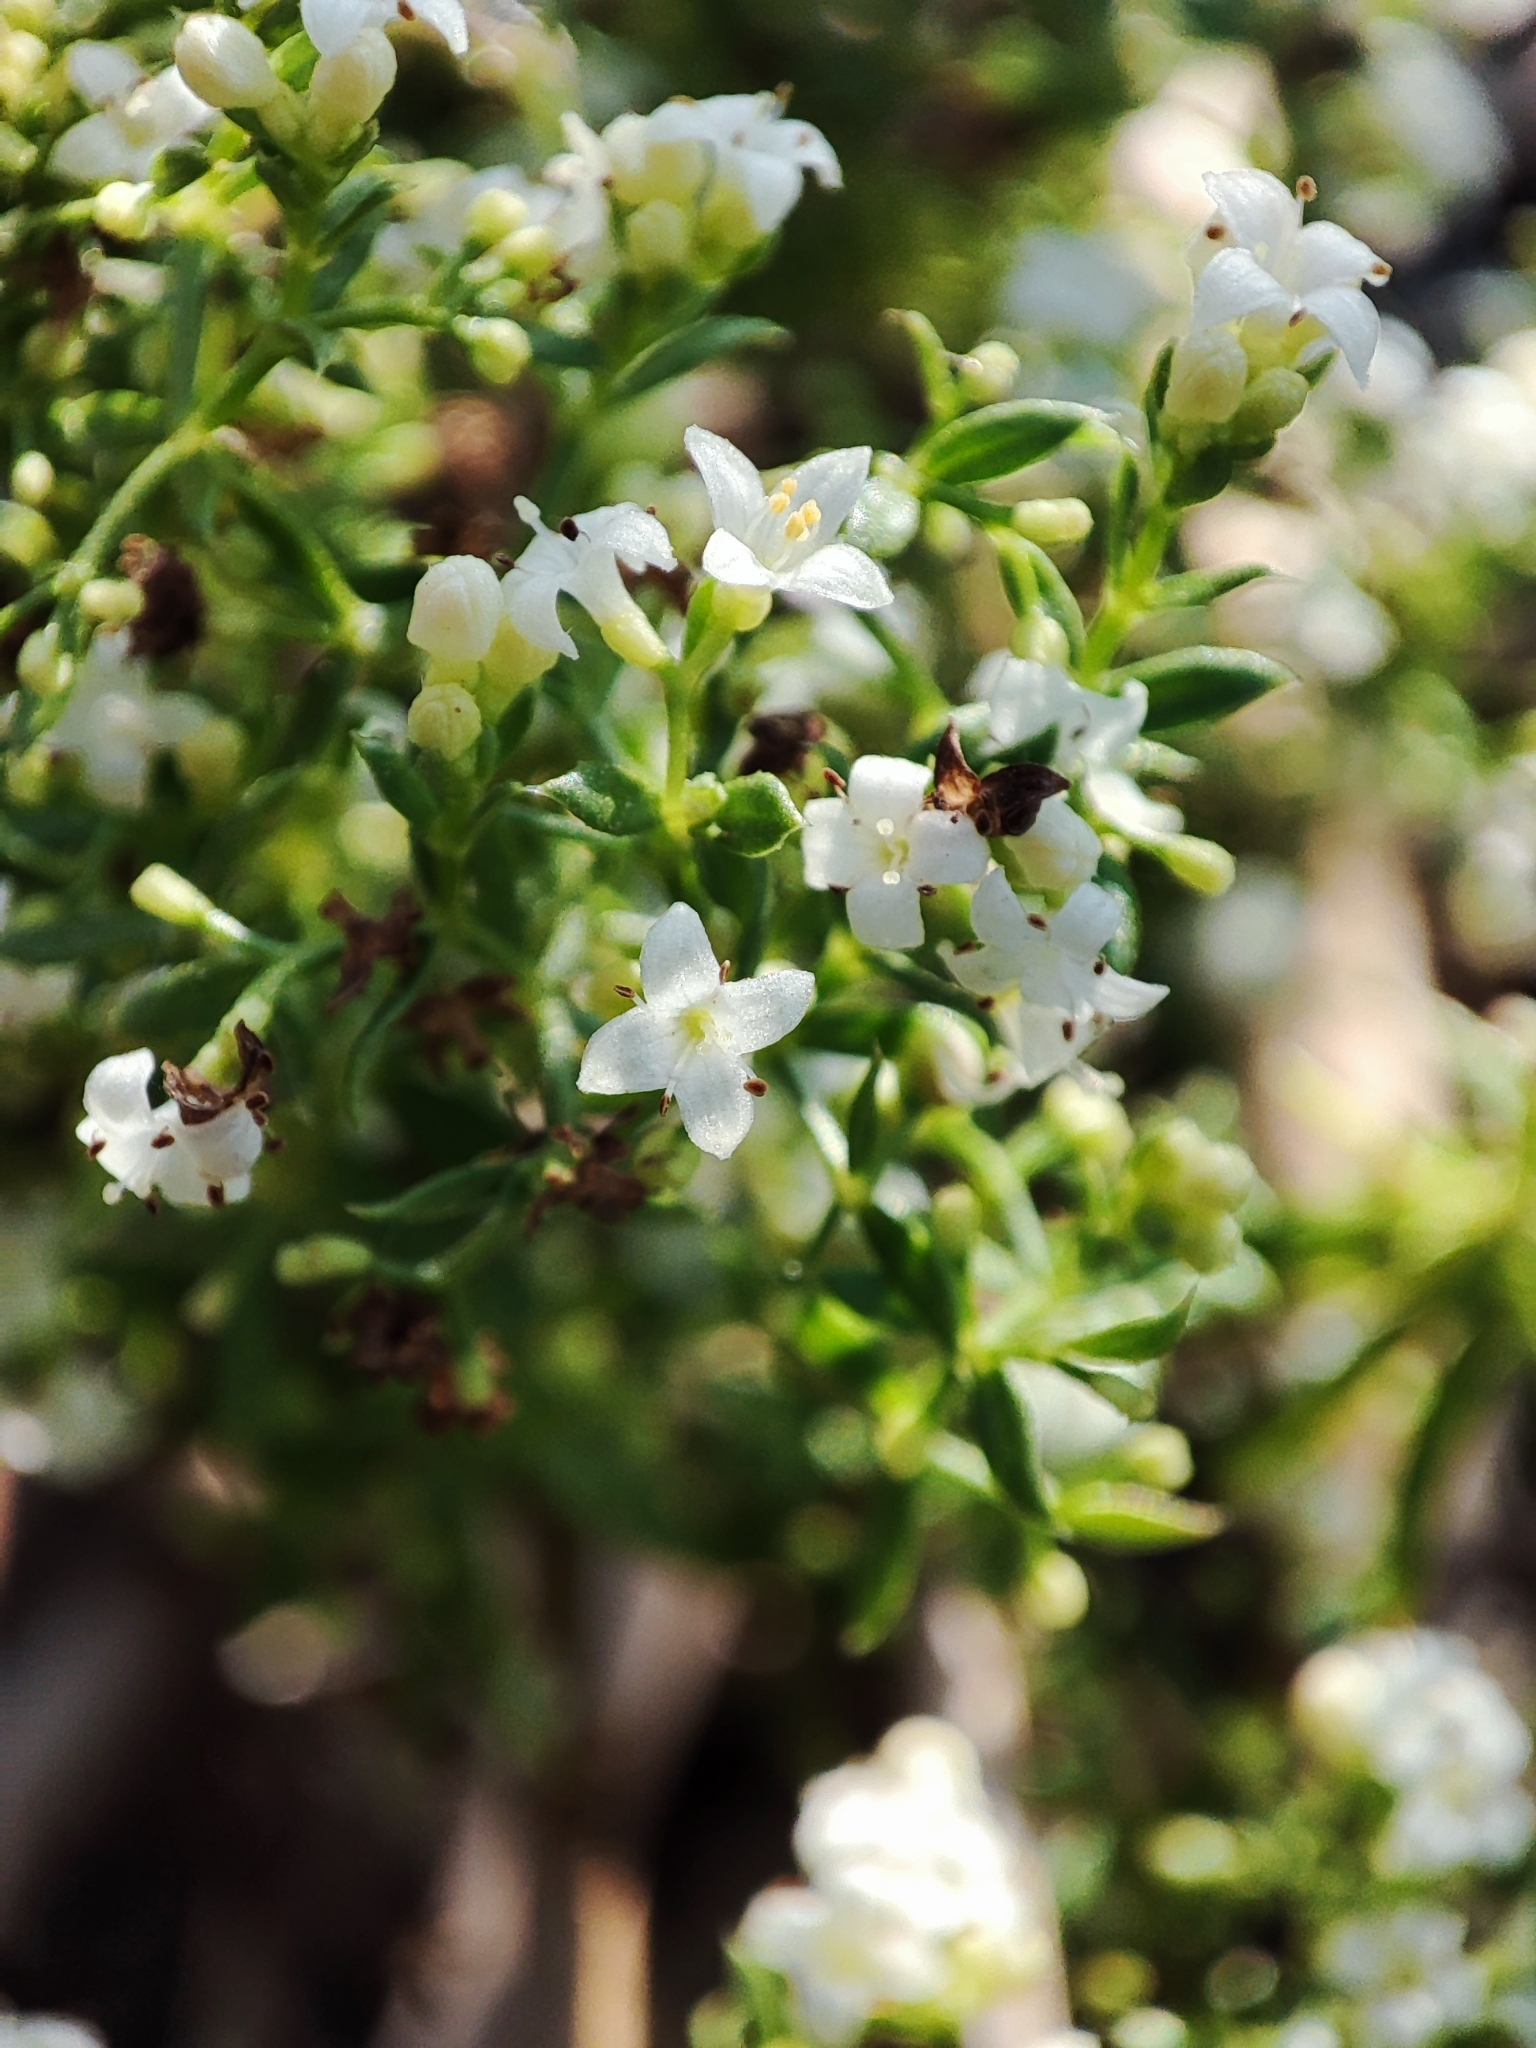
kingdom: Plantae
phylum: Tracheophyta
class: Magnoliopsida
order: Gentianales
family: Rubiaceae
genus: Galium
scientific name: Galium humifusum
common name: Spreading bedstraw
